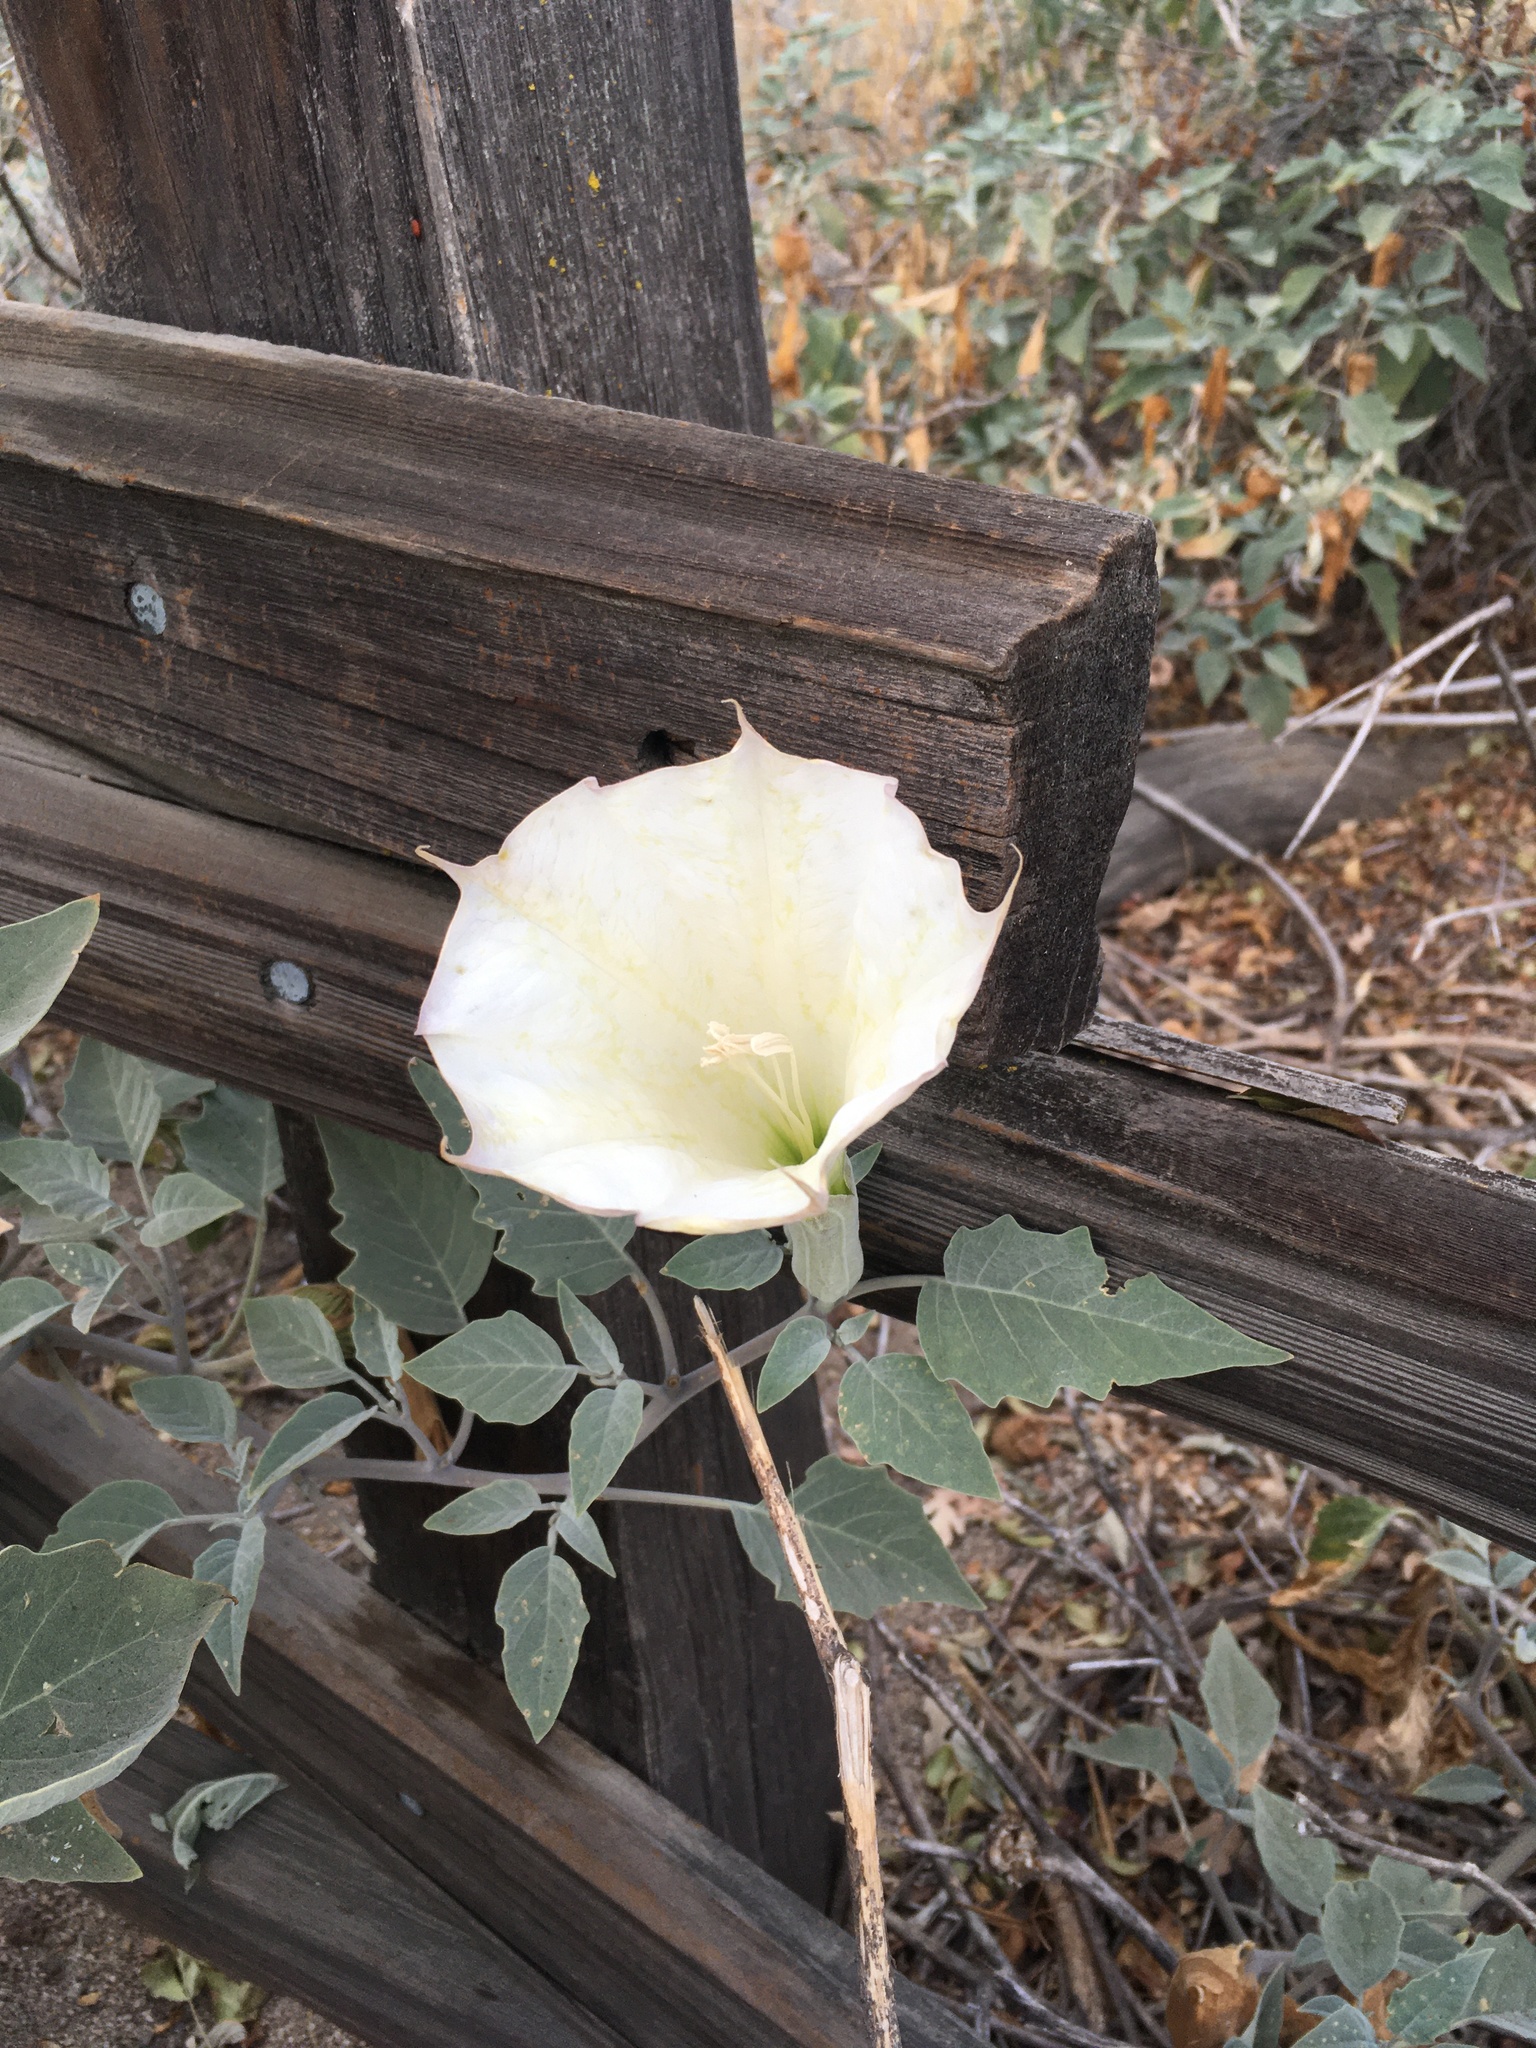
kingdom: Plantae
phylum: Tracheophyta
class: Magnoliopsida
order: Solanales
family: Solanaceae
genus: Datura
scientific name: Datura wrightii
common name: Sacred thorn-apple
